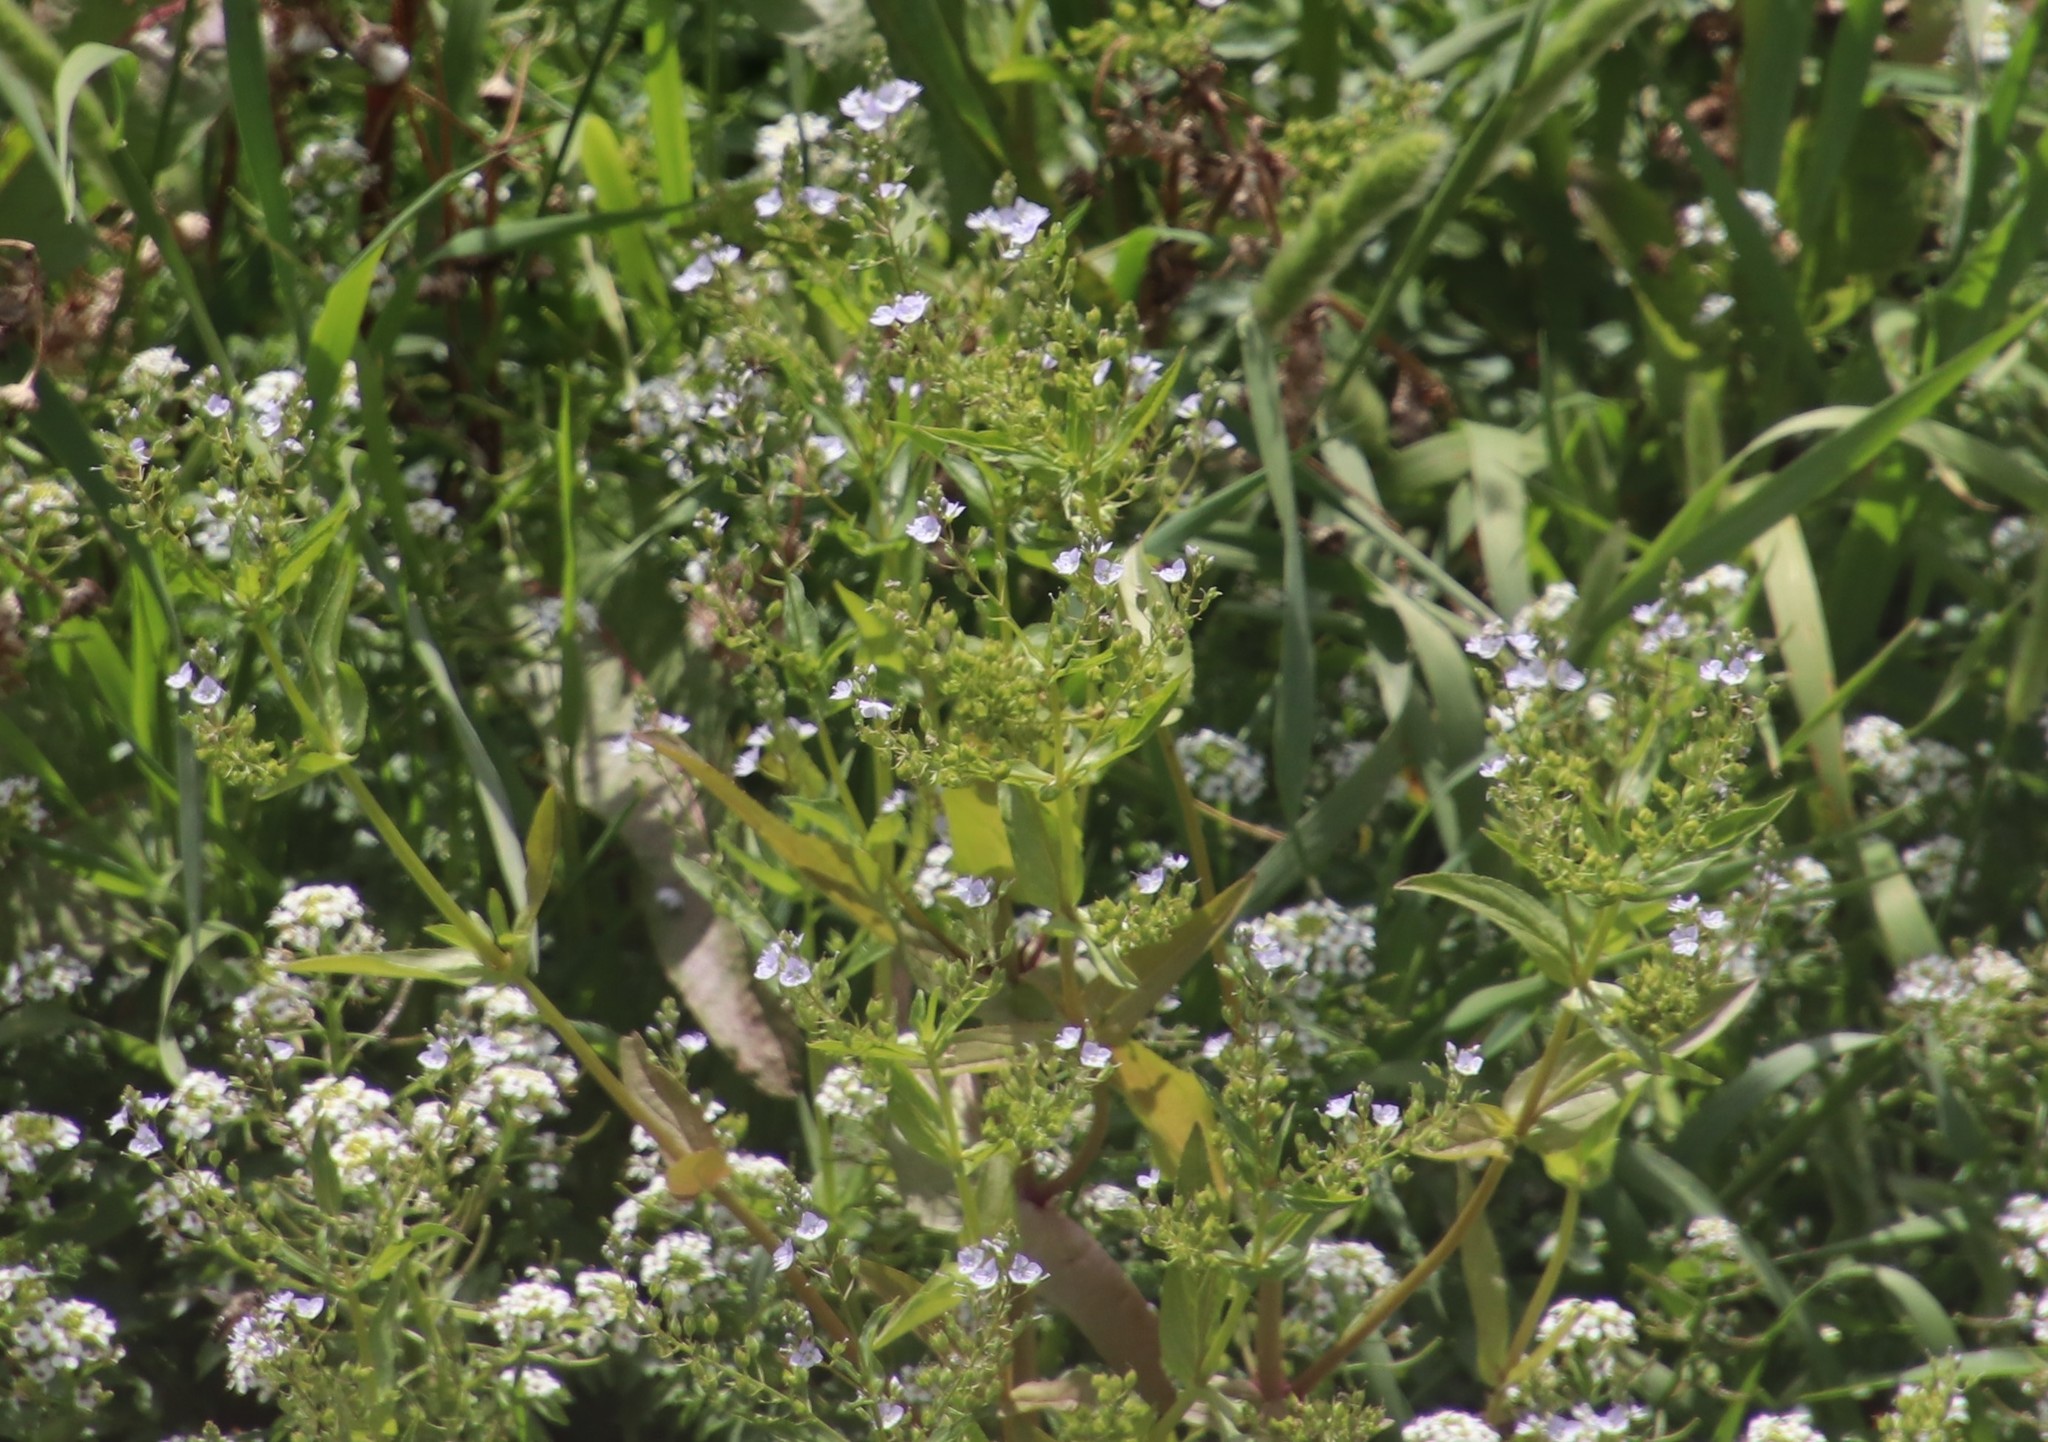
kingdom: Plantae
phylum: Tracheophyta
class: Magnoliopsida
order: Lamiales
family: Plantaginaceae
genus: Veronica
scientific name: Veronica anagallis-aquatica
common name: Water speedwell
